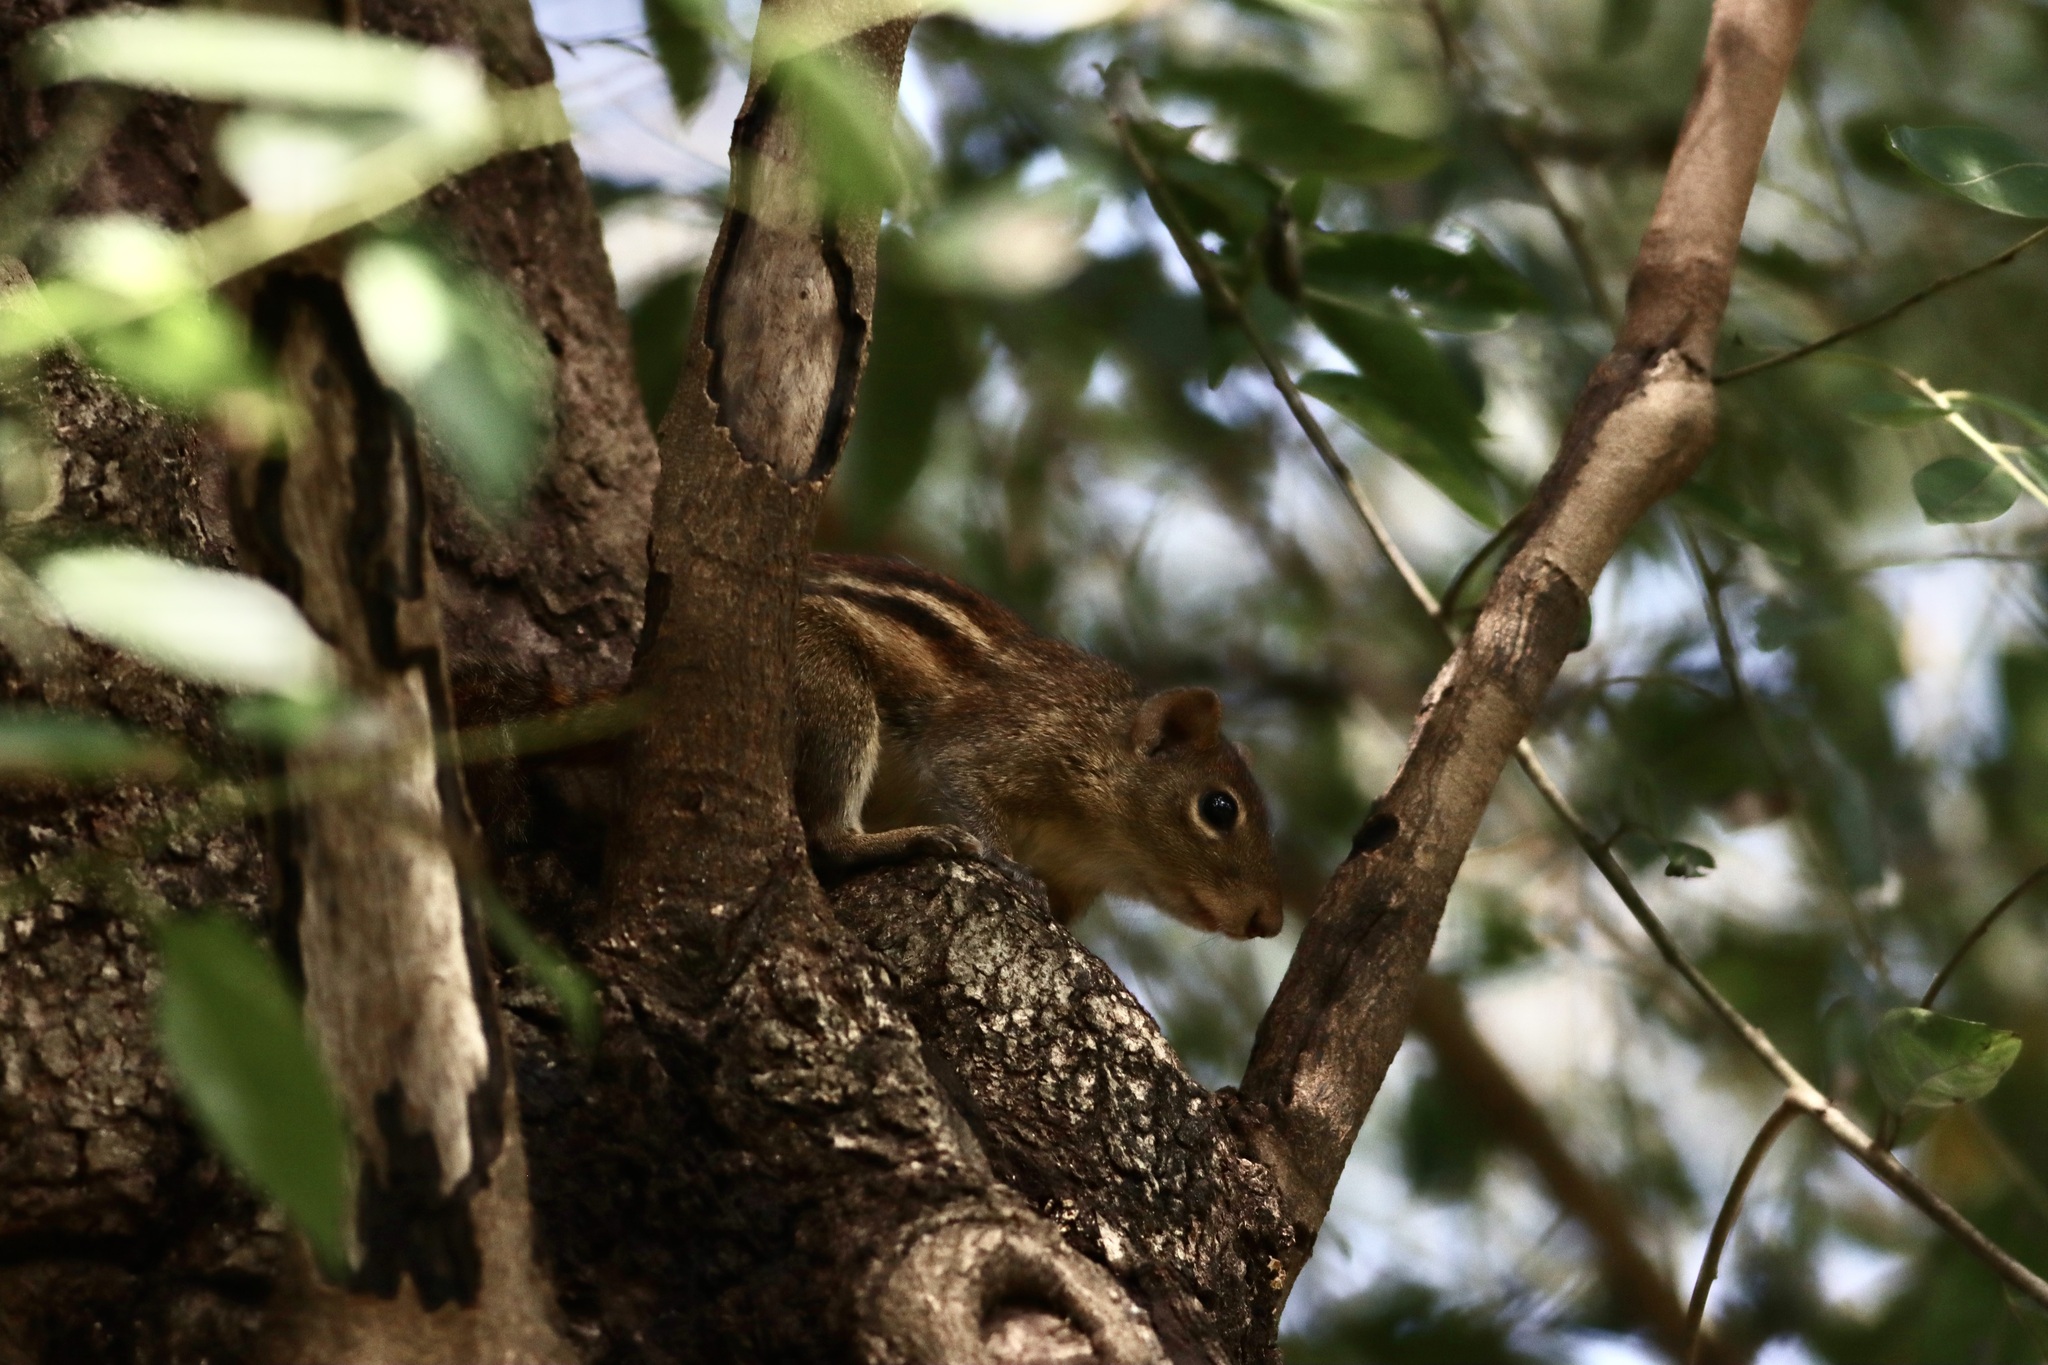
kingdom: Animalia
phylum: Chordata
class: Mammalia
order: Rodentia
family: Sciuridae
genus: Menetes
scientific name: Menetes berdmorei
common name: Indochinese ground squirrel
